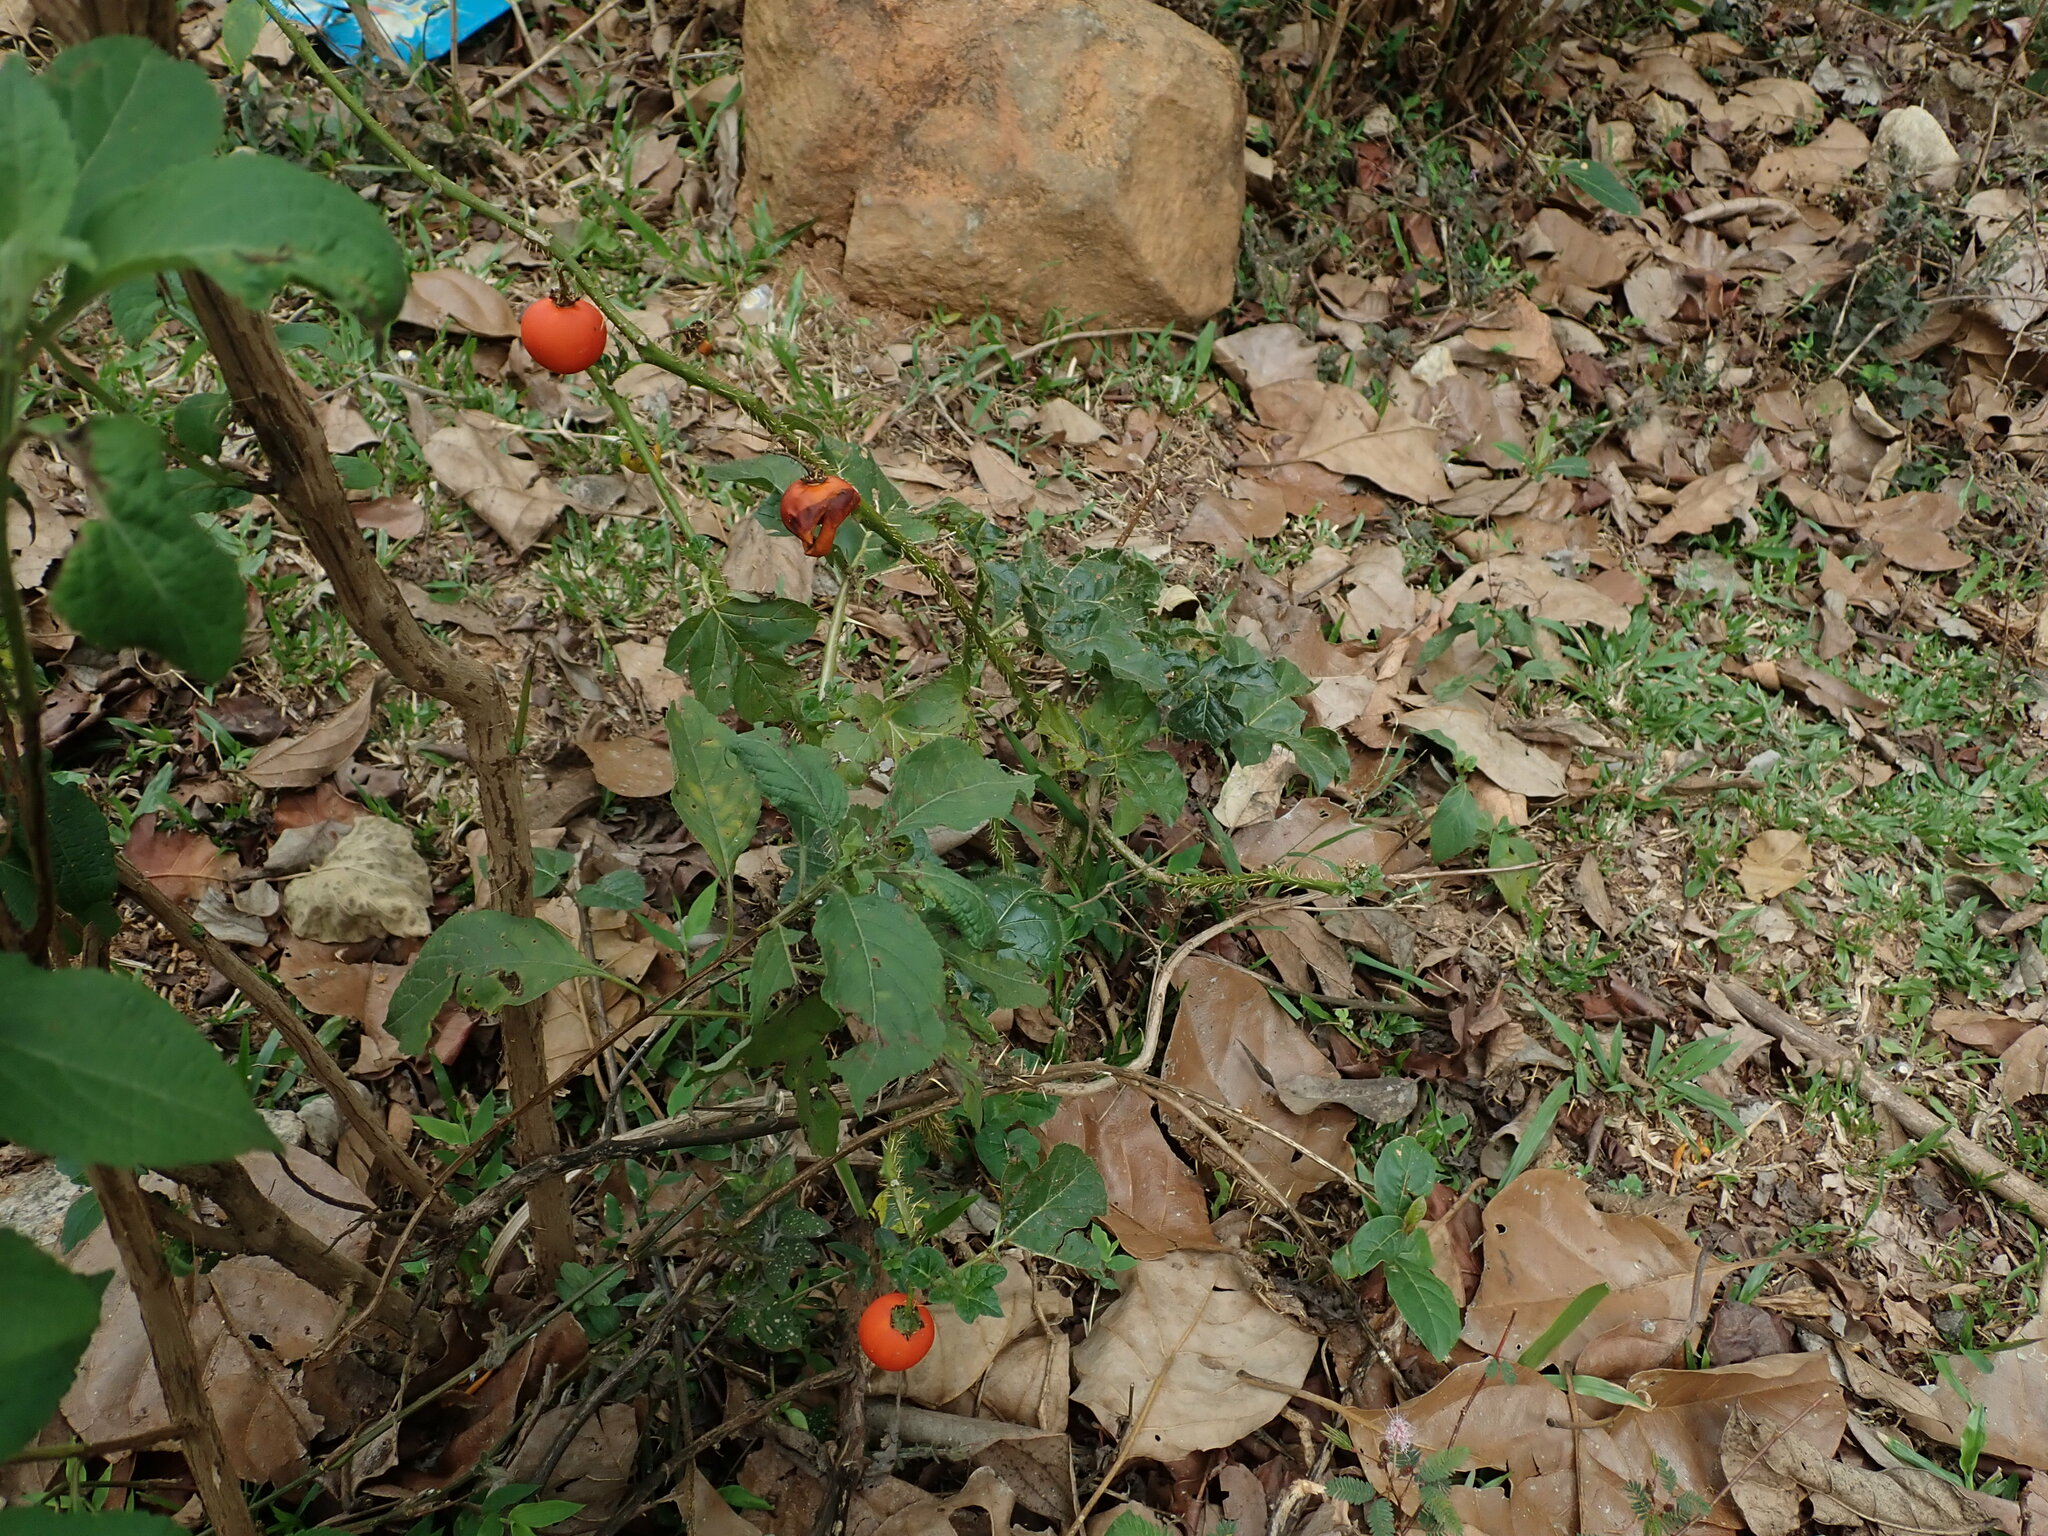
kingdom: Plantae
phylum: Tracheophyta
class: Magnoliopsida
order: Solanales
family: Solanaceae
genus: Solanum
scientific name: Solanum capsicoides
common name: Cockroach berry
